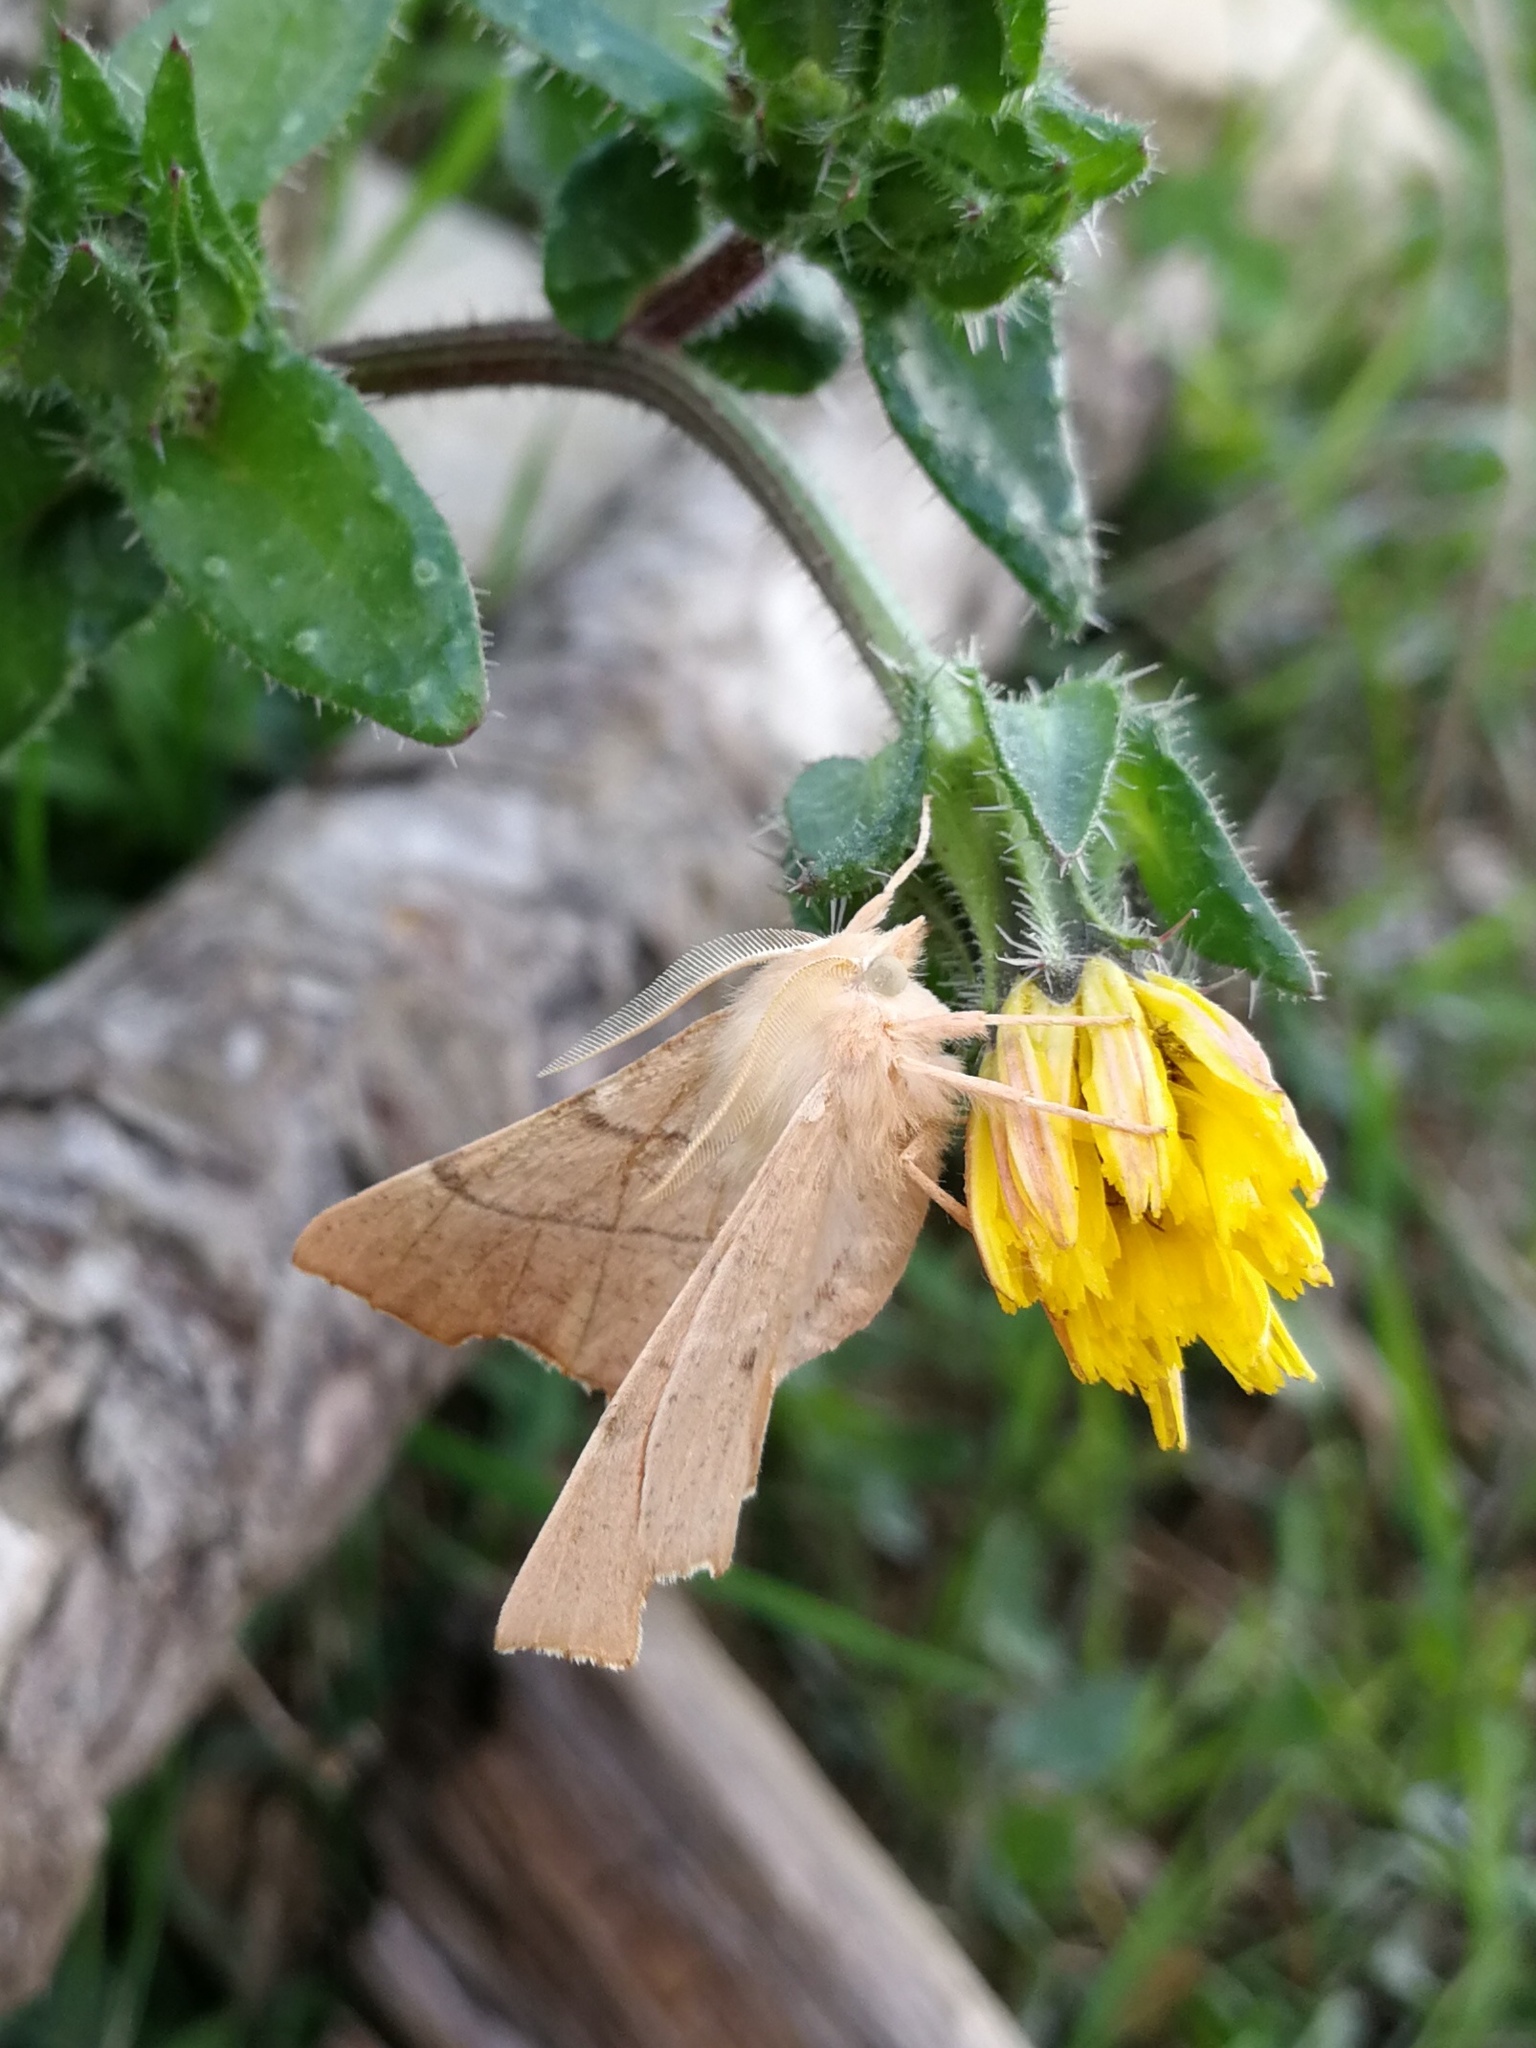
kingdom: Animalia
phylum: Arthropoda
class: Insecta
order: Lepidoptera
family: Geometridae
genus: Ennomos
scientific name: Ennomos quercaria
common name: Clouded august thorn
